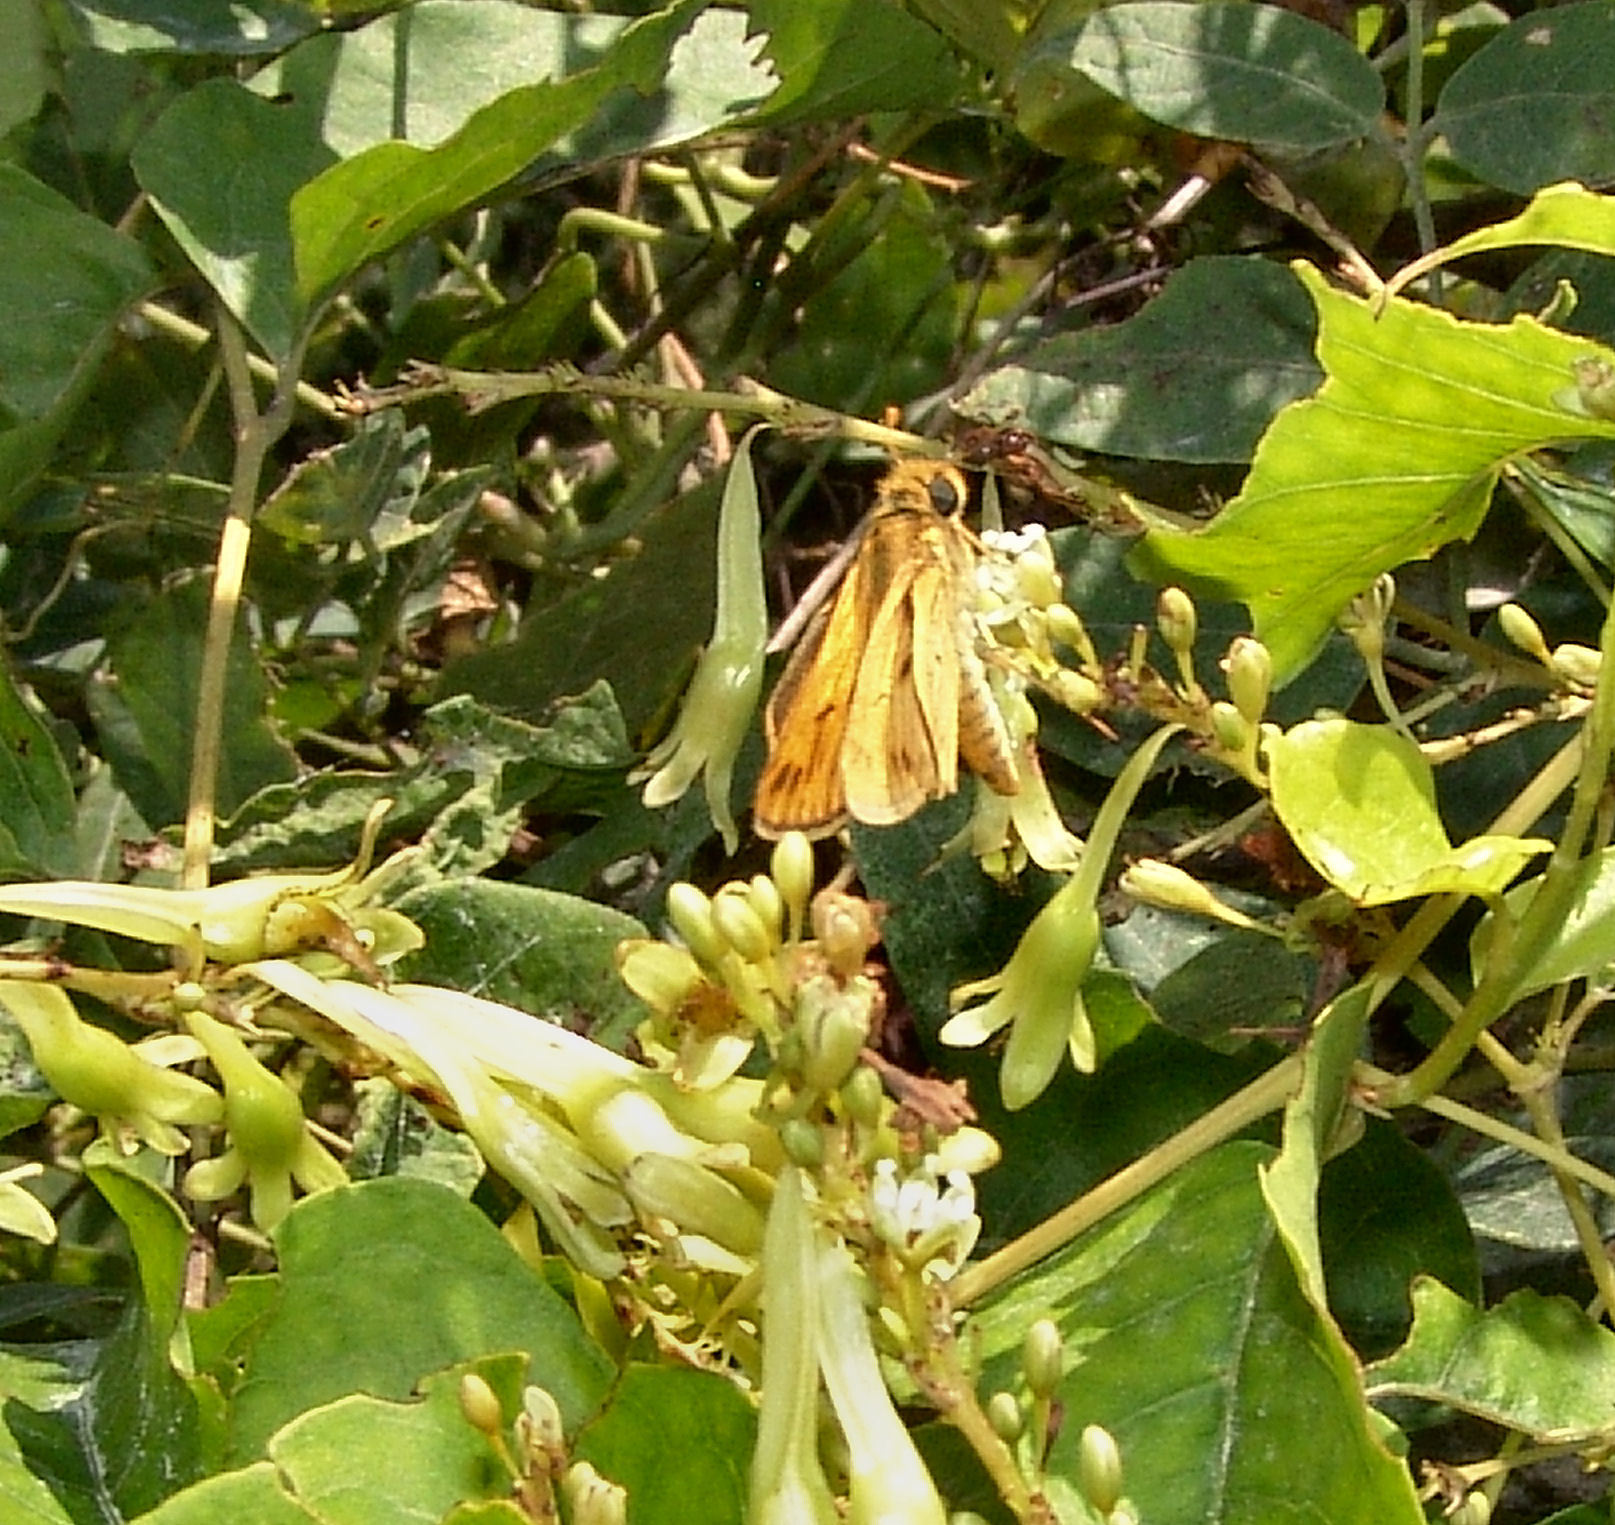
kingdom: Animalia
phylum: Arthropoda
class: Insecta
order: Lepidoptera
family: Hesperiidae
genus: Hylephila
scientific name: Hylephila phyleus
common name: Fiery skipper
